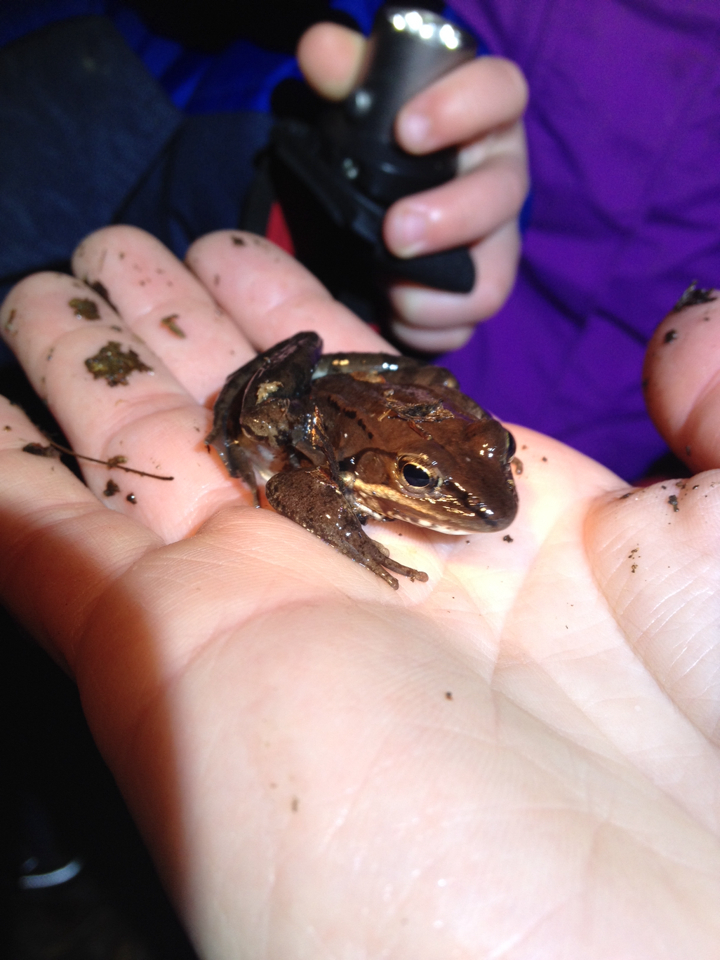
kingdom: Animalia
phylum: Chordata
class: Amphibia
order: Anura
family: Ranidae
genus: Lithobates
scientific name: Lithobates sylvaticus
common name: Wood frog
